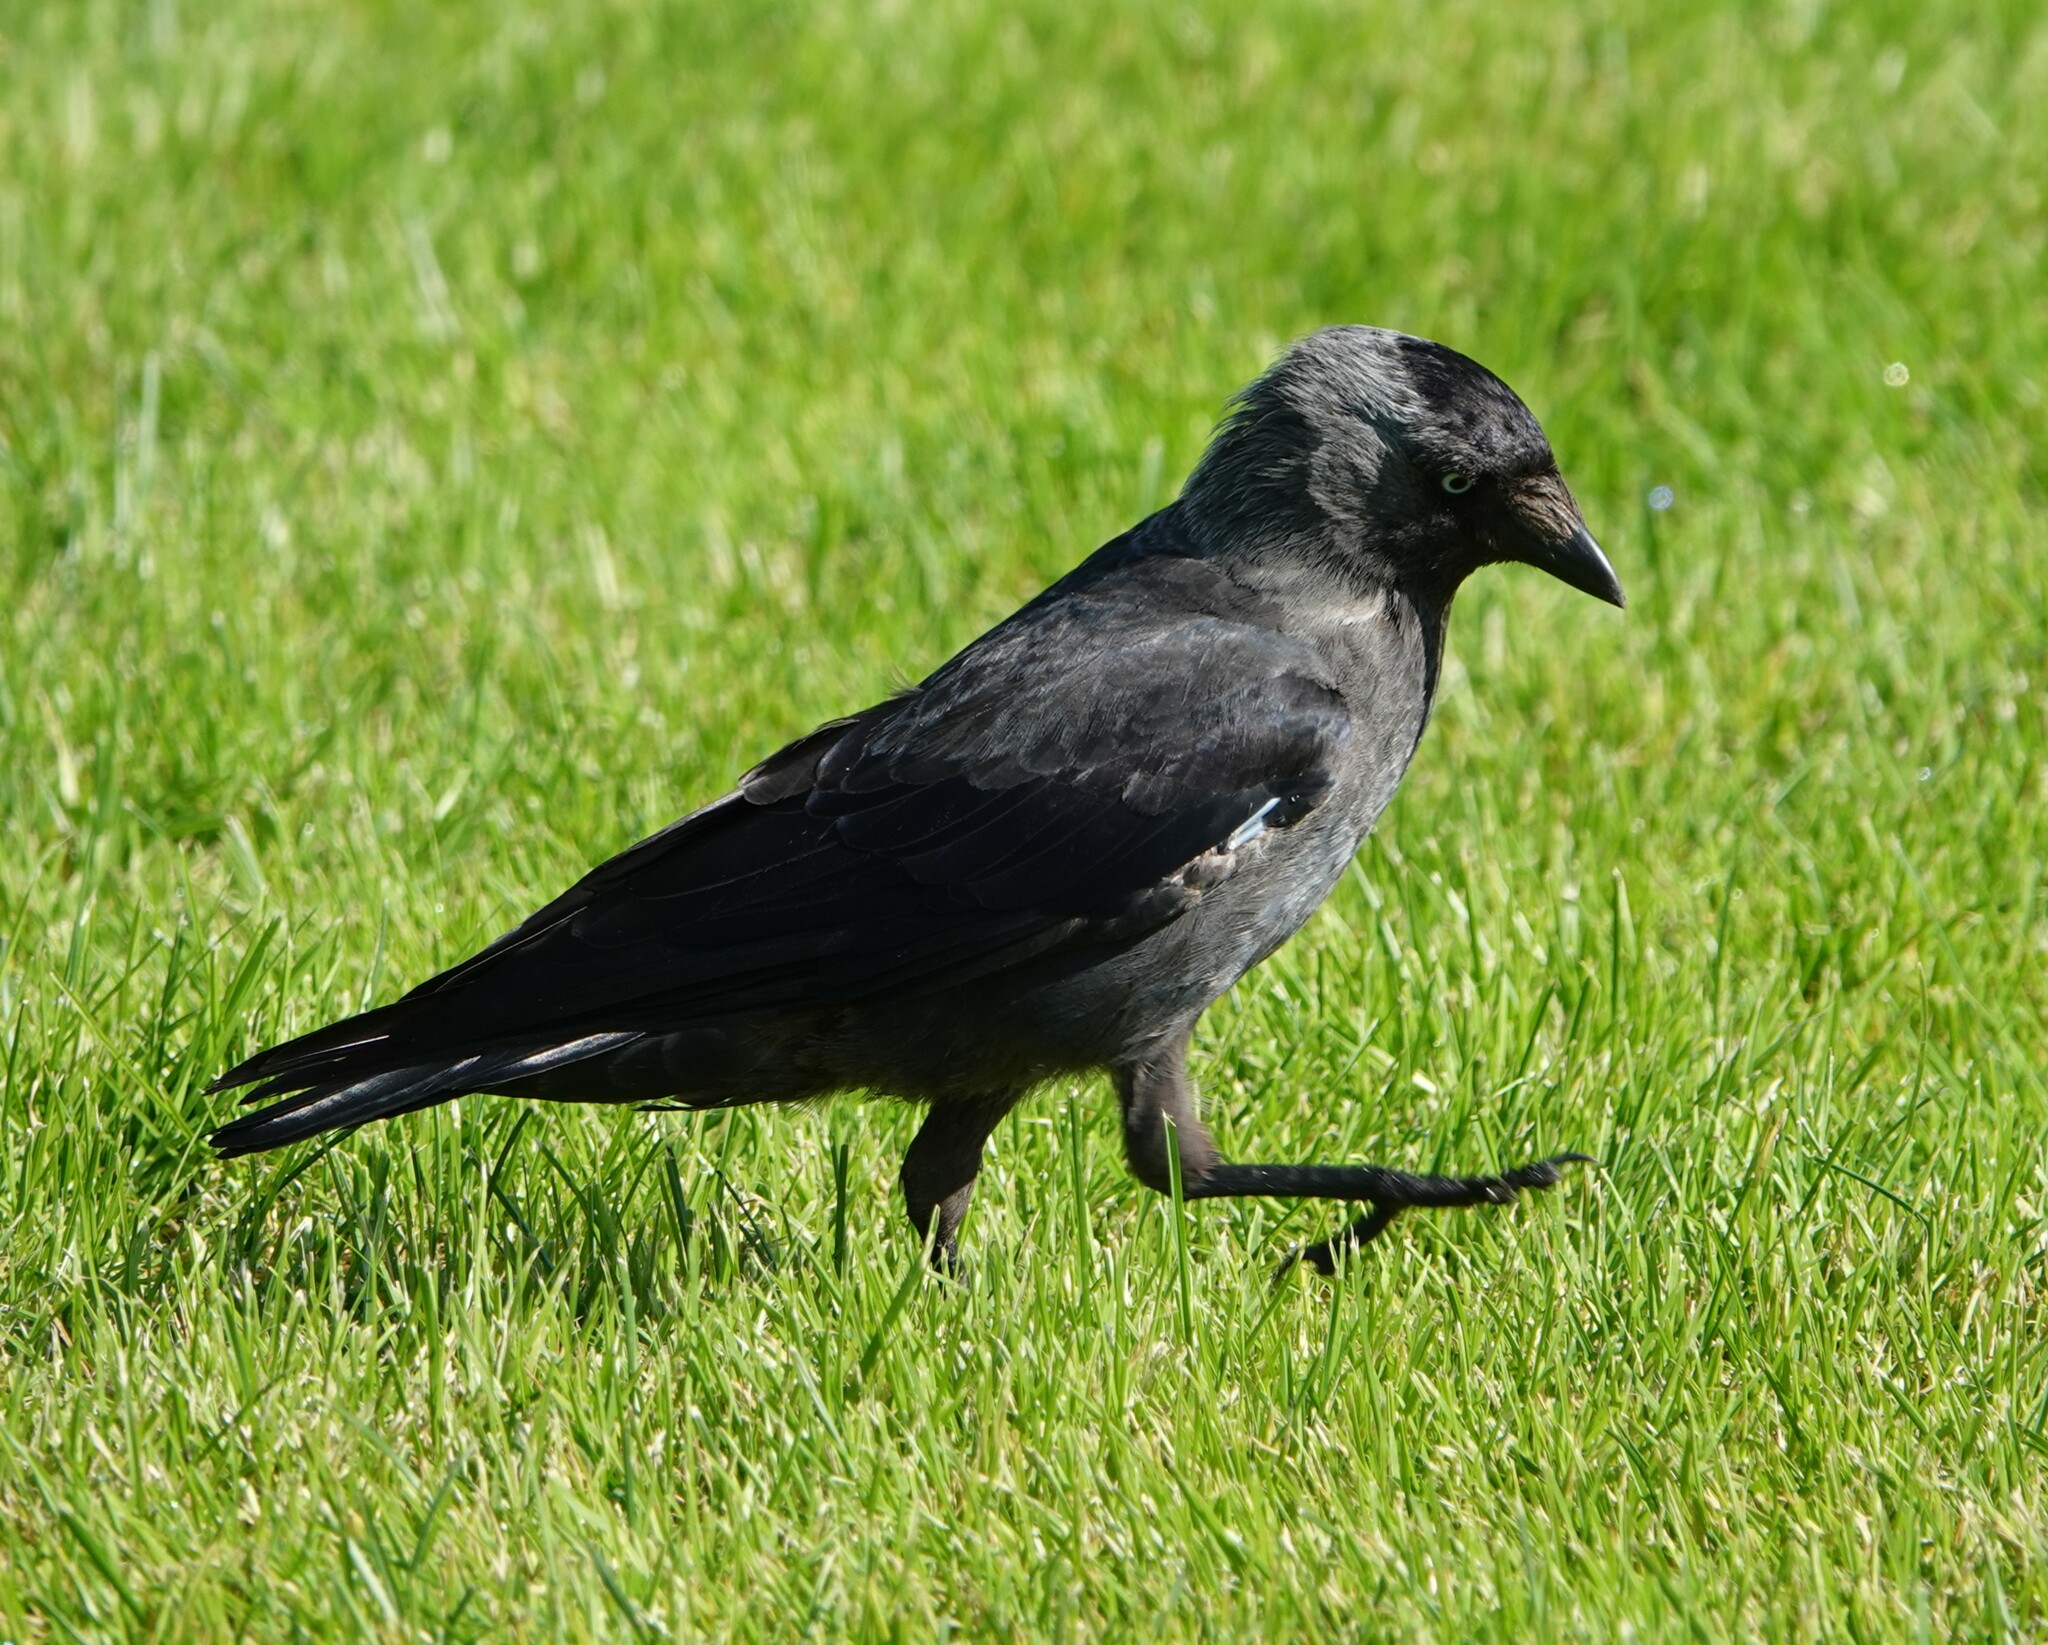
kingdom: Animalia
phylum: Chordata
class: Aves
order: Passeriformes
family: Corvidae
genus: Coloeus
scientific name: Coloeus monedula
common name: Western jackdaw
